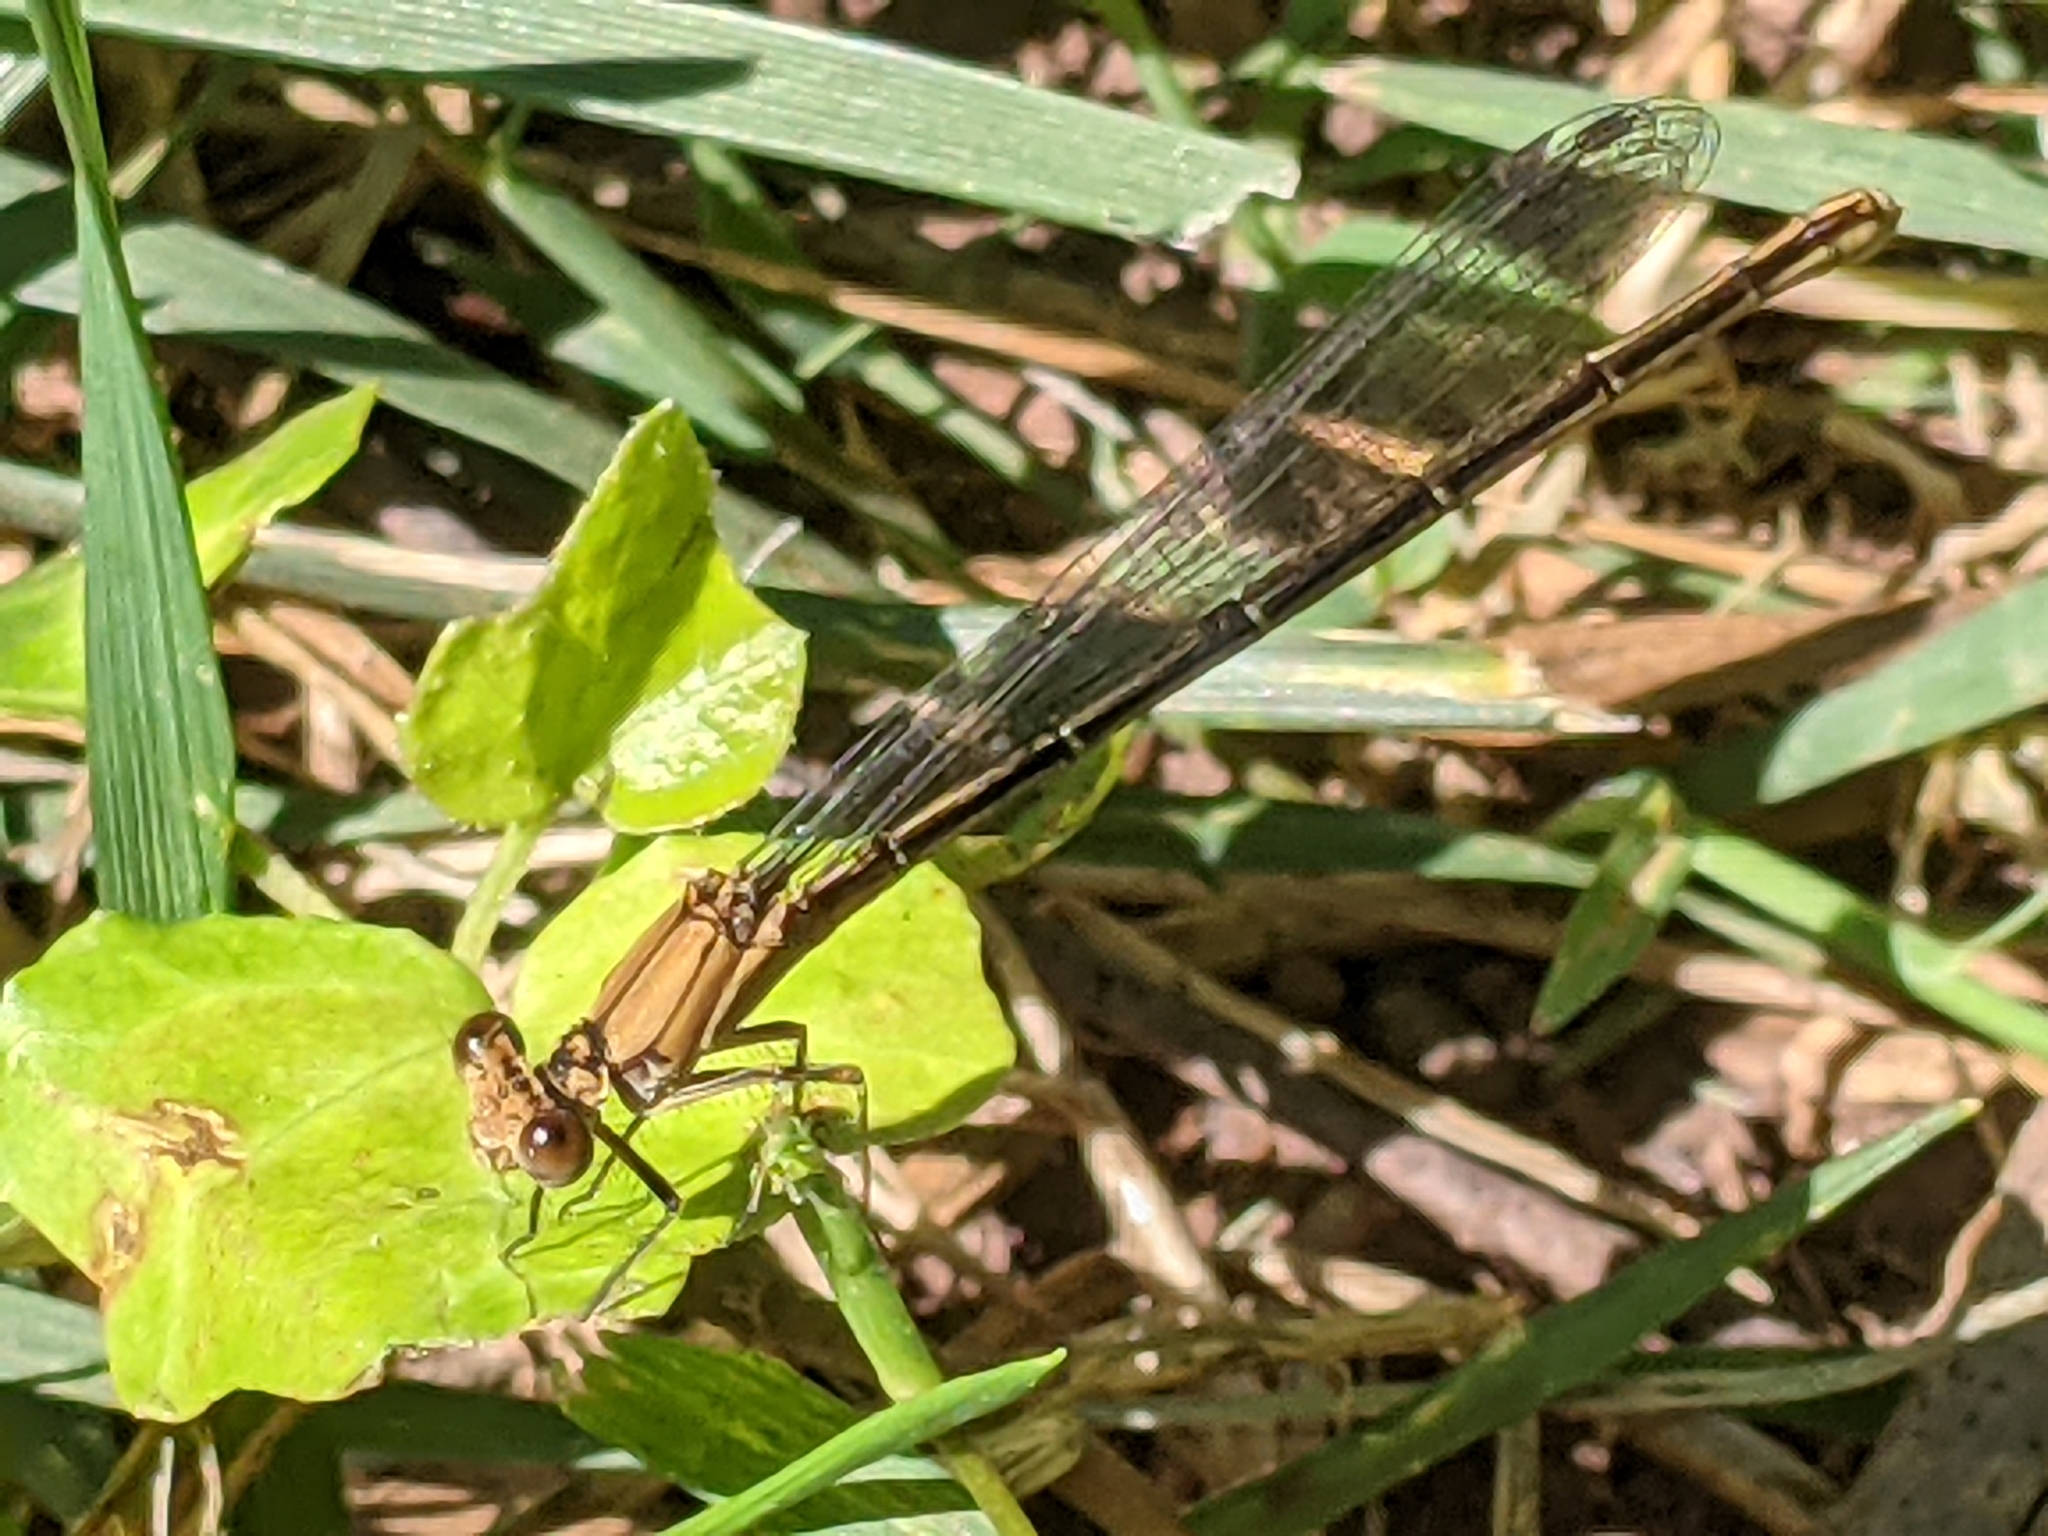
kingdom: Animalia
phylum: Arthropoda
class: Insecta
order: Odonata
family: Coenagrionidae
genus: Argia
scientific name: Argia moesta
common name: Powdered dancer
